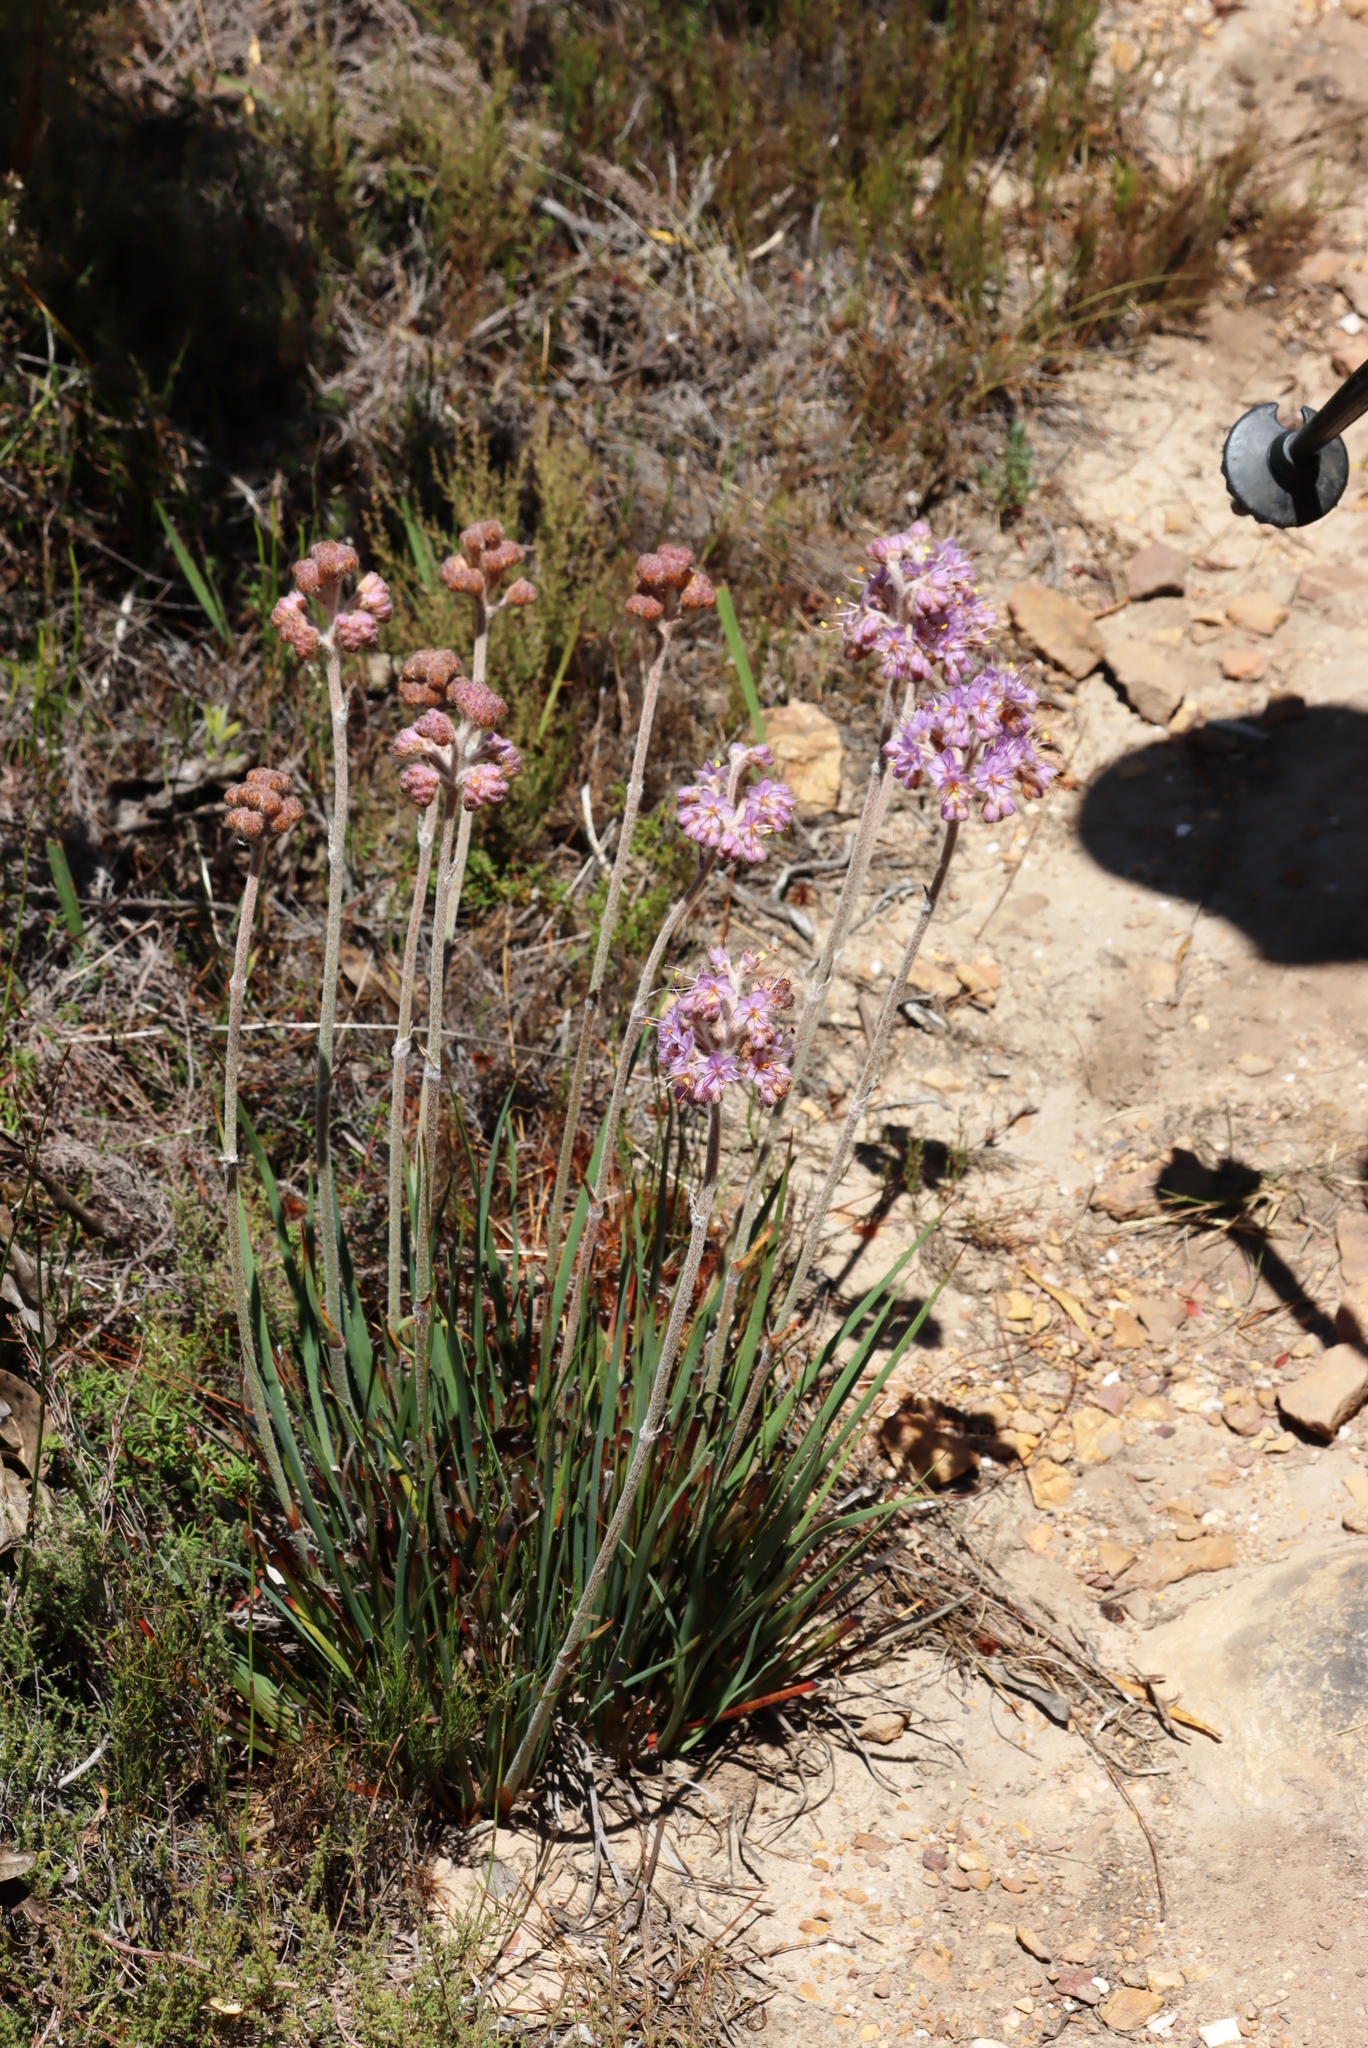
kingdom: Plantae
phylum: Tracheophyta
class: Liliopsida
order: Commelinales
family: Haemodoraceae
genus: Dilatris
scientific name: Dilatris ixioides
